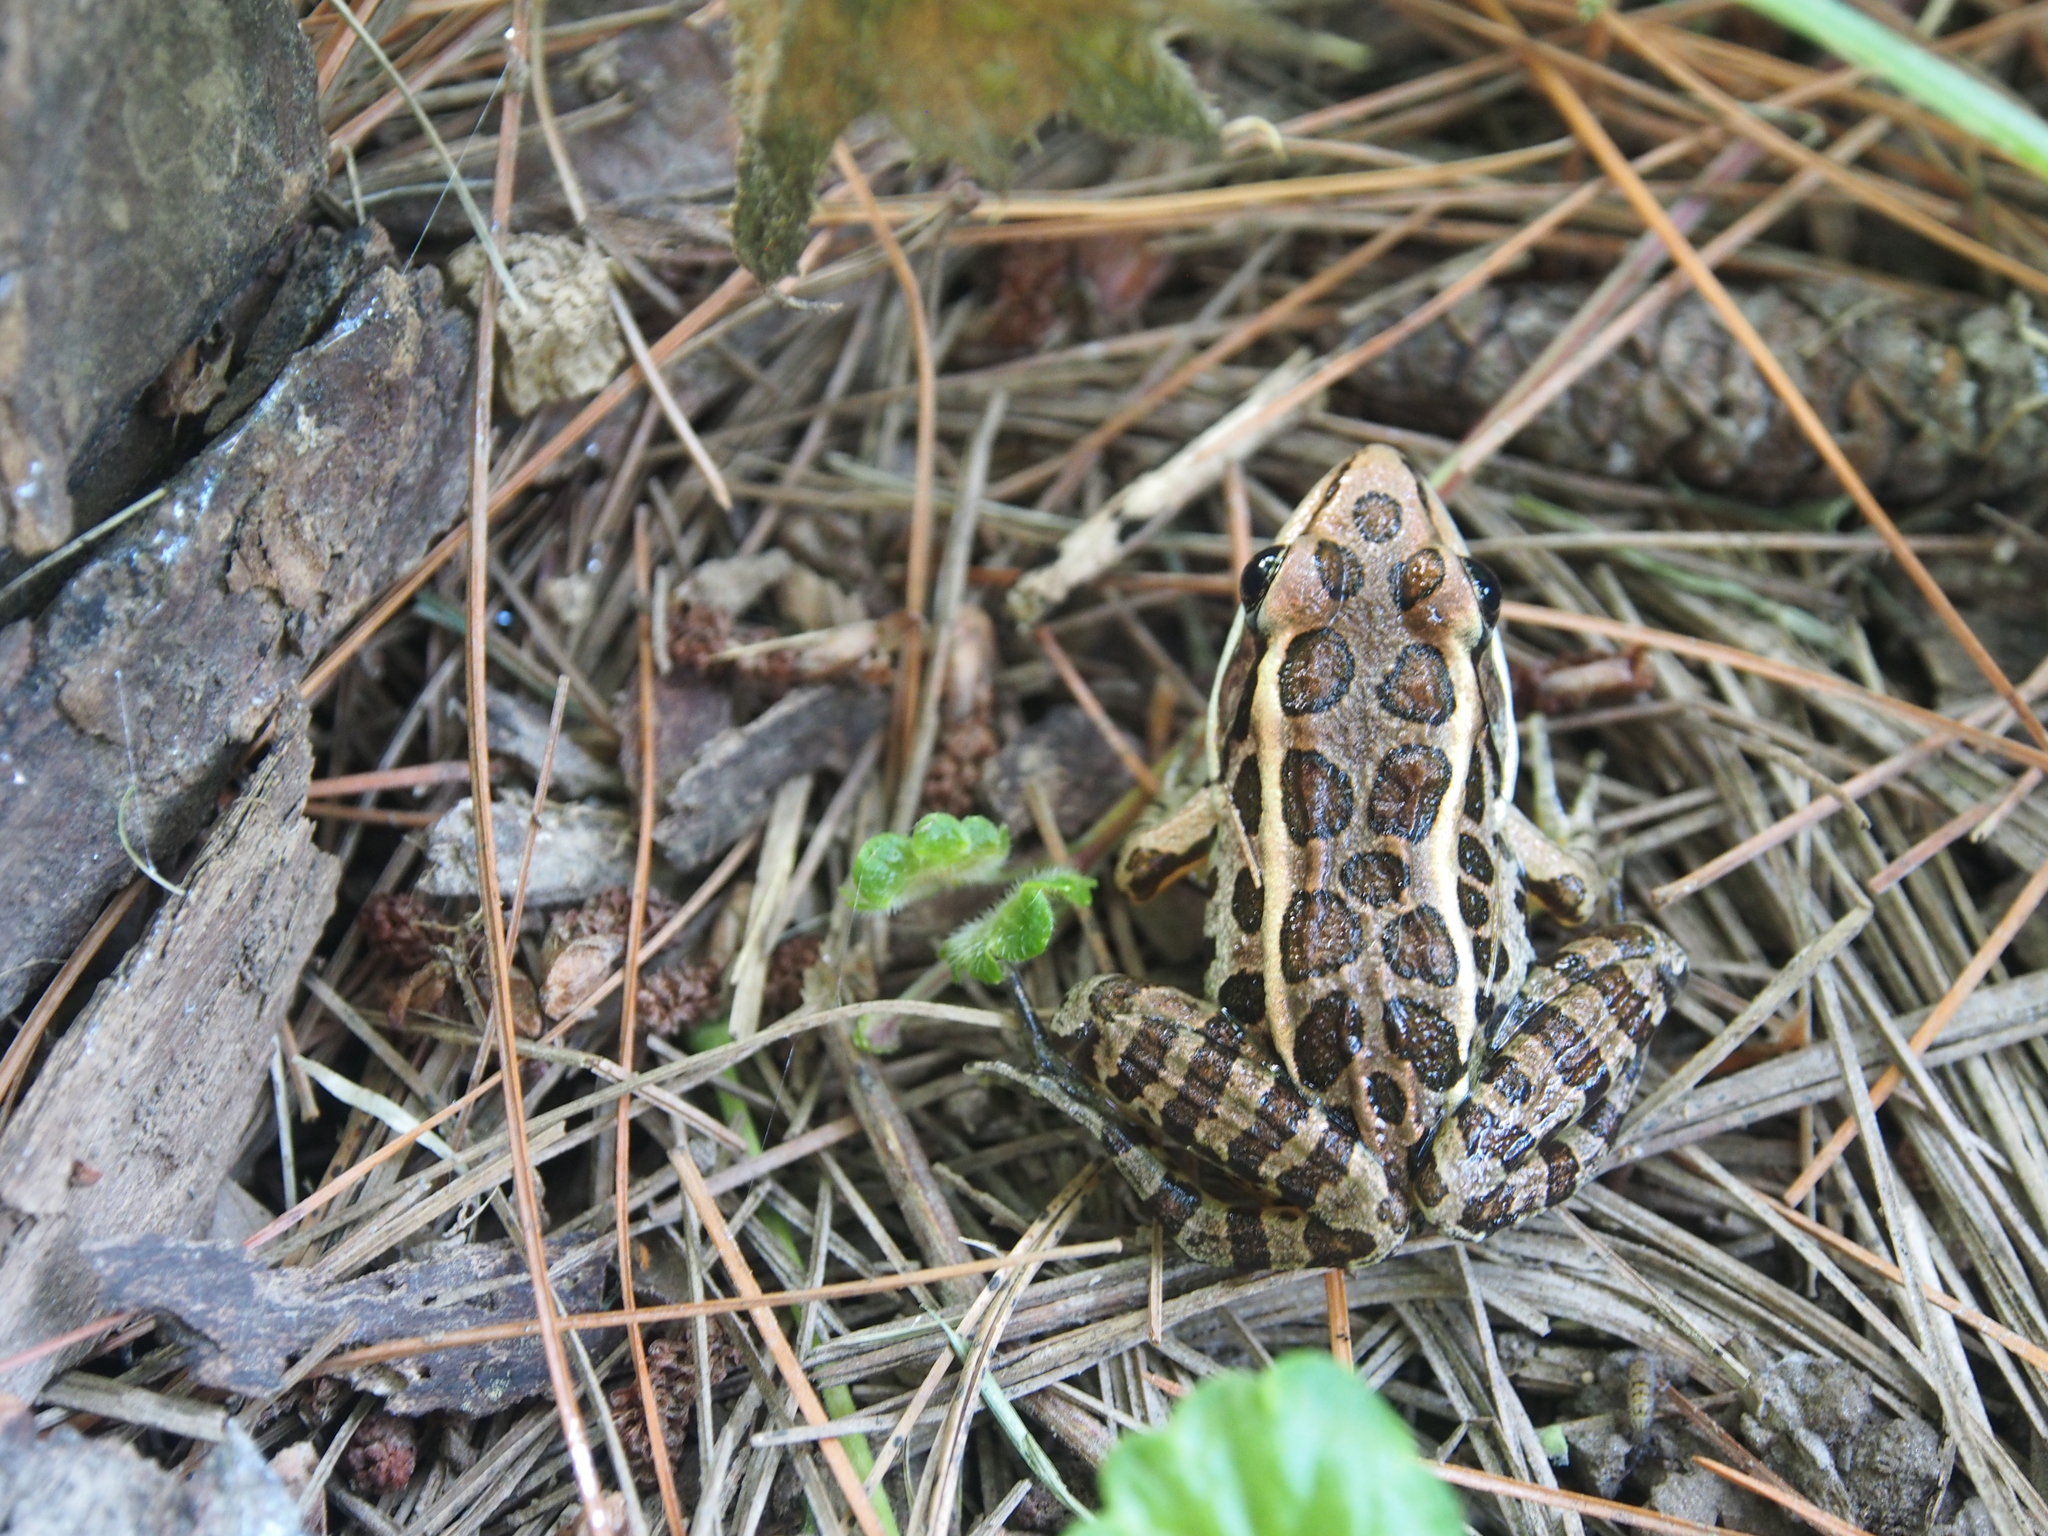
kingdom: Animalia
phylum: Chordata
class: Amphibia
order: Anura
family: Ranidae
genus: Lithobates
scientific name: Lithobates palustris
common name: Pickerel frog
